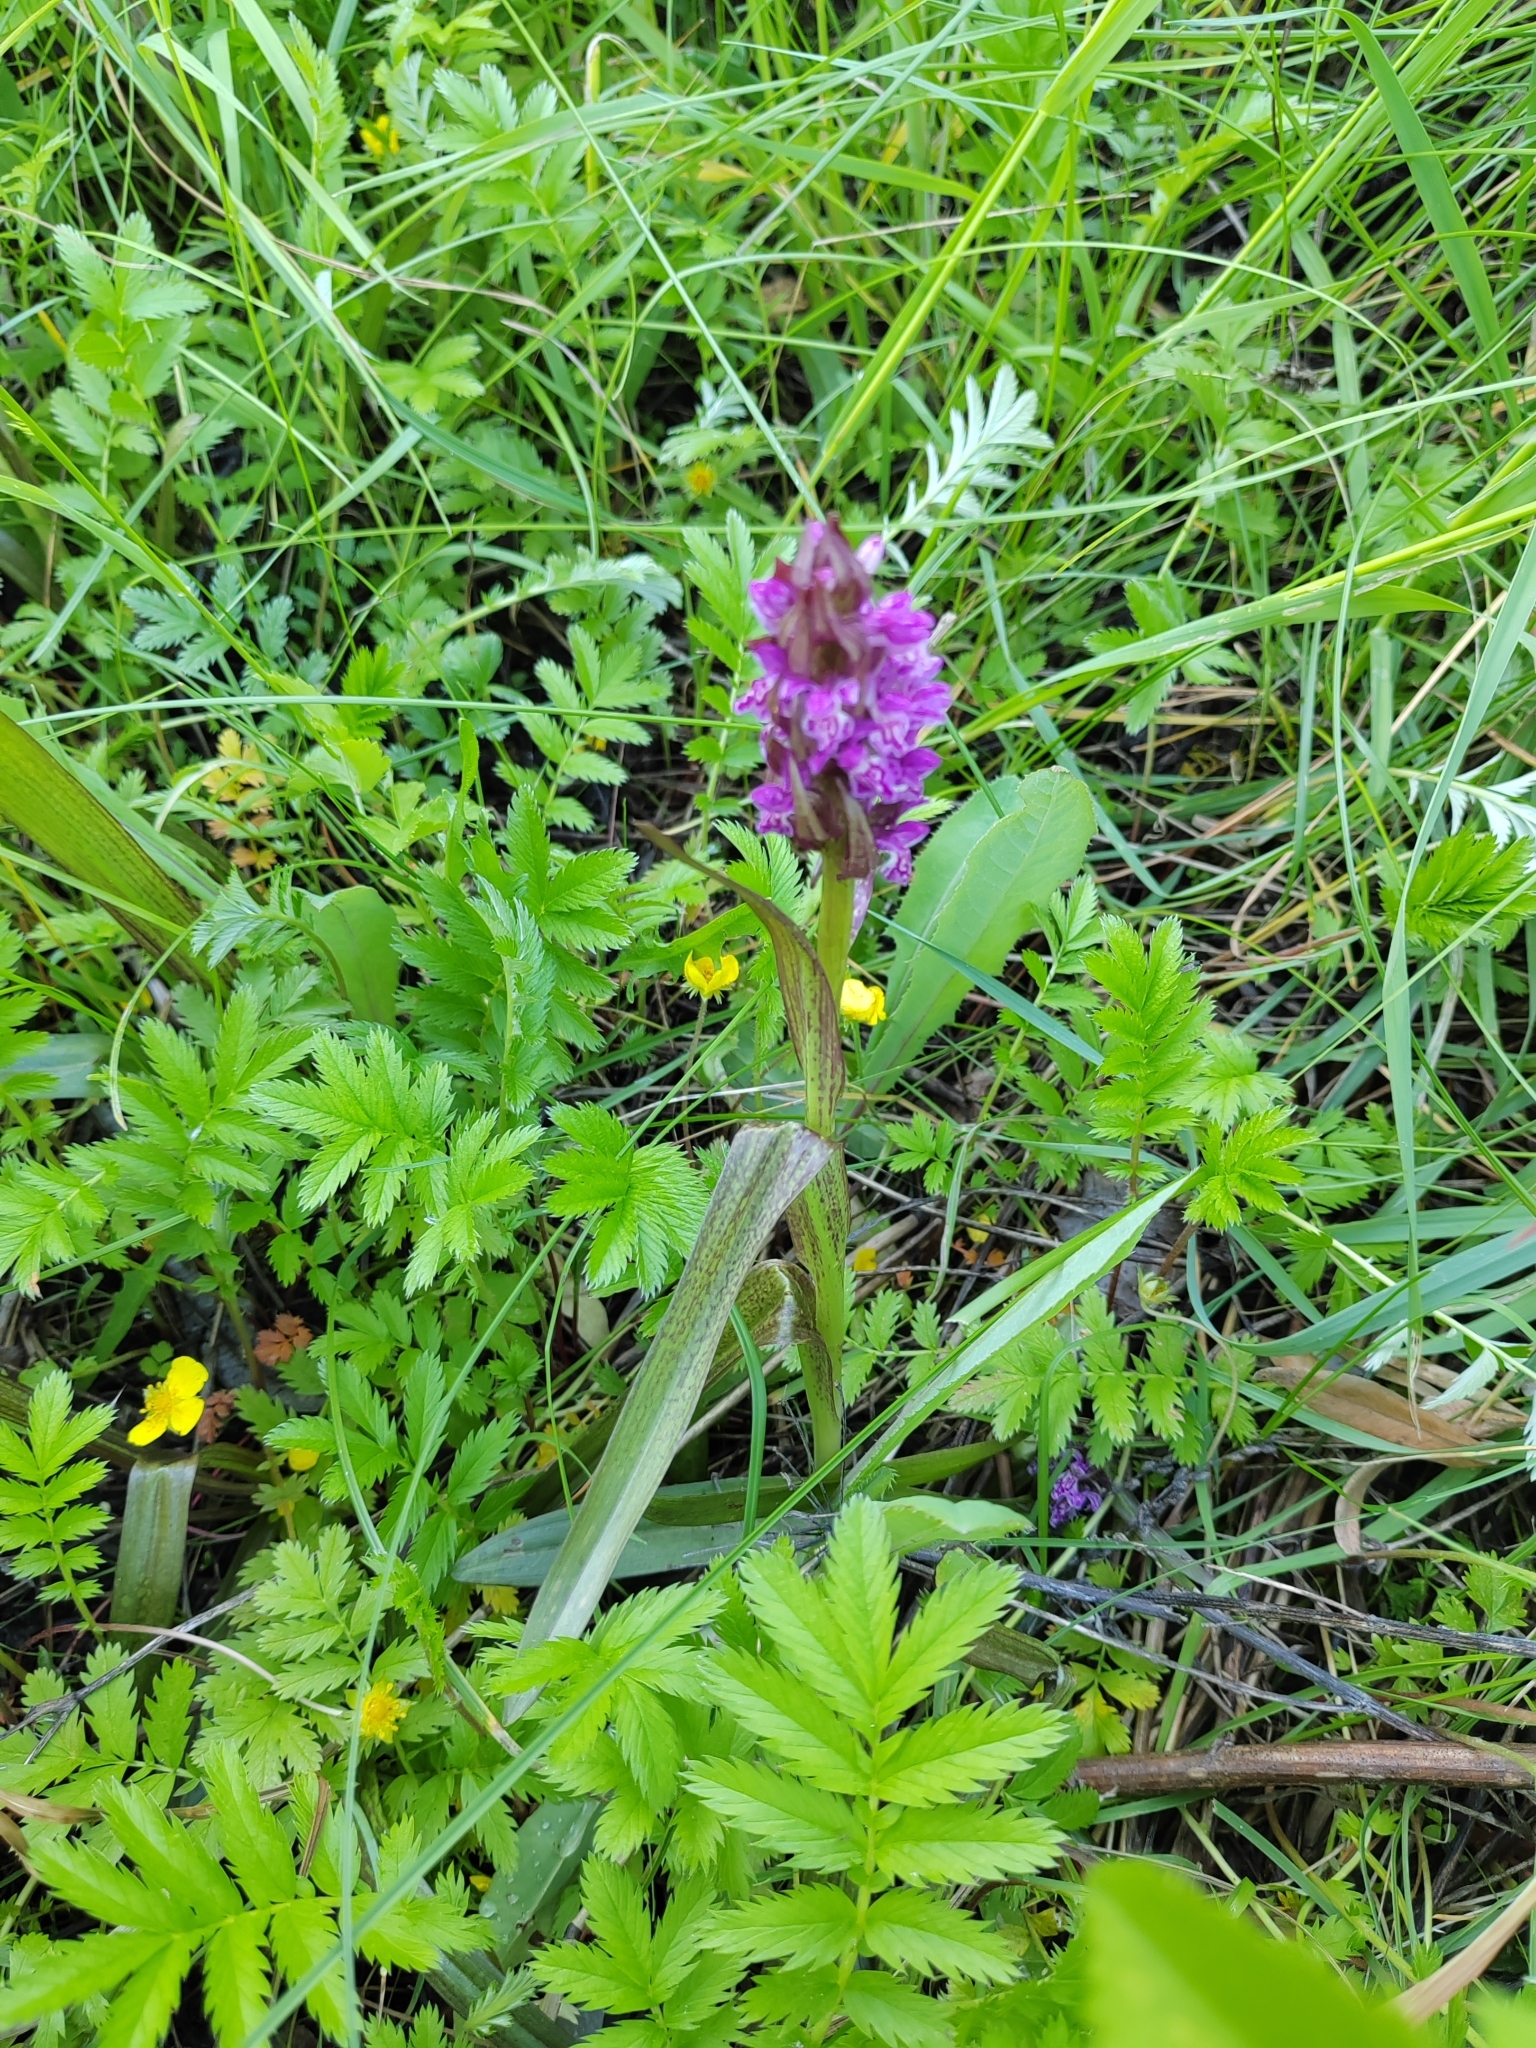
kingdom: Plantae
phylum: Tracheophyta
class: Liliopsida
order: Asparagales
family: Orchidaceae
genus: Dactylorhiza
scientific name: Dactylorhiza incarnata
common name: Early marsh-orchid
